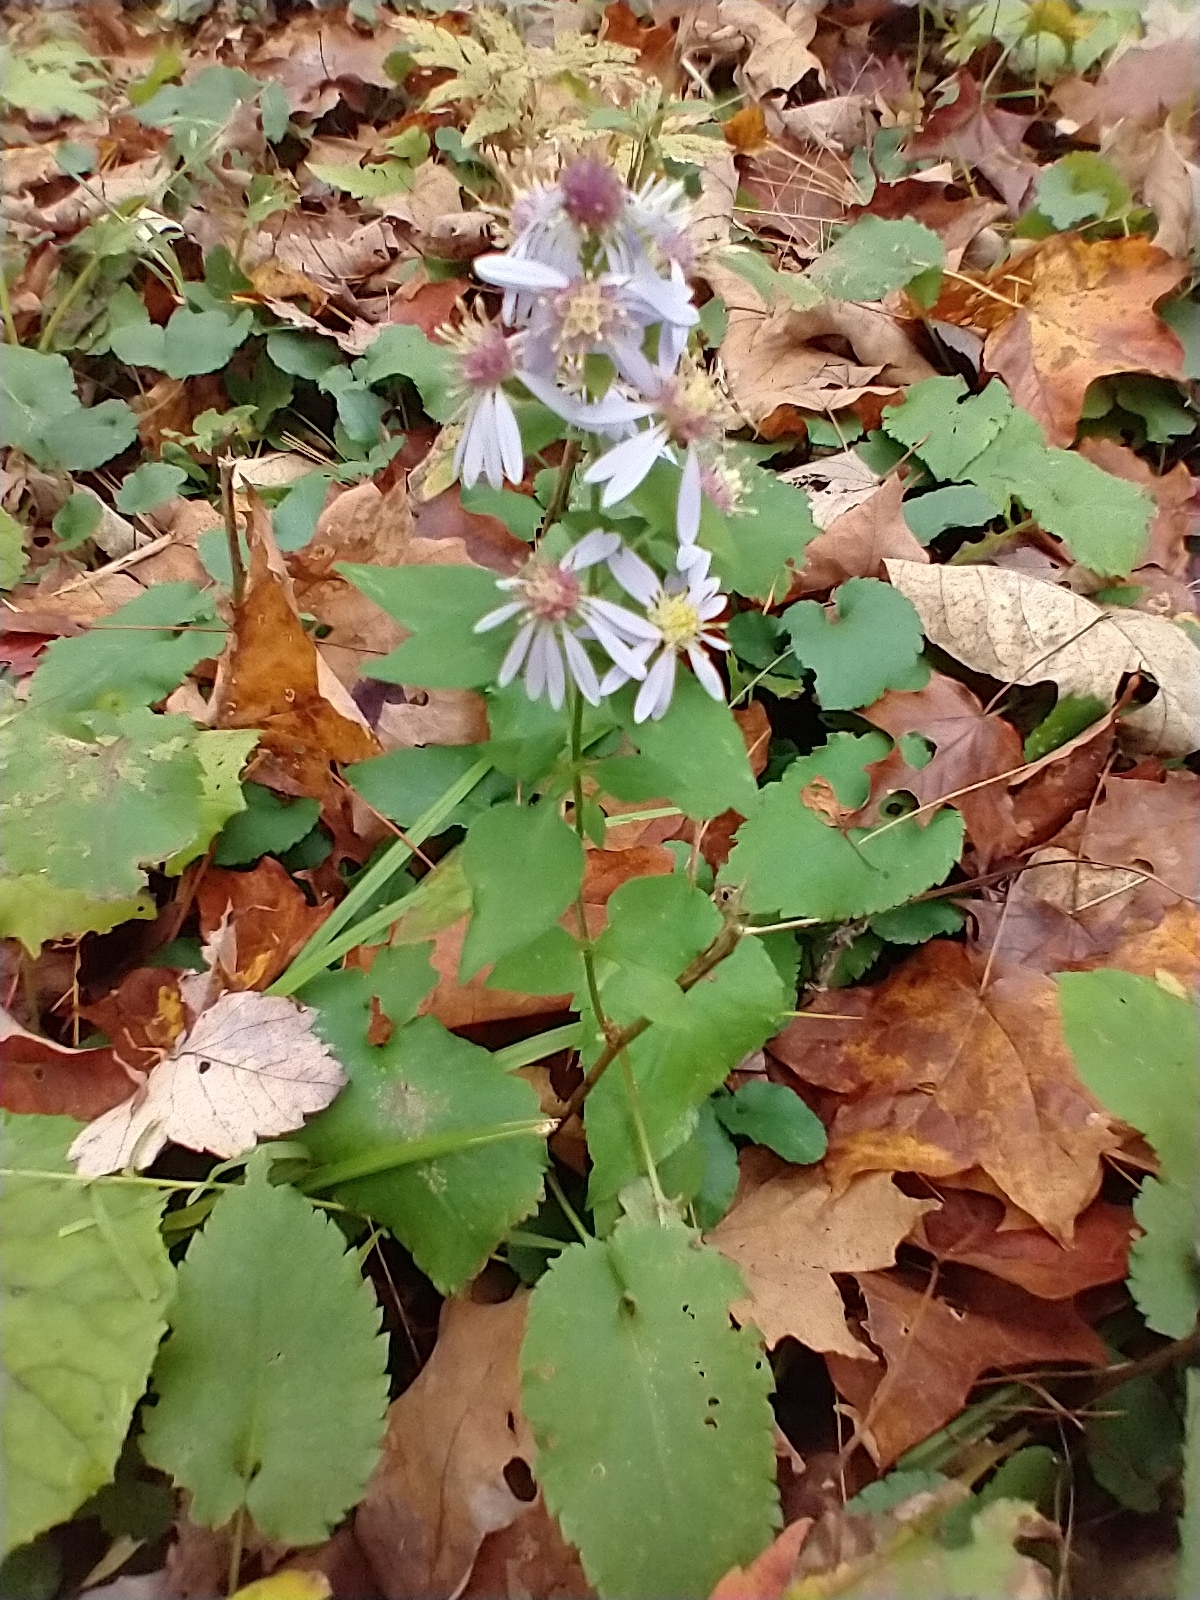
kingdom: Plantae
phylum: Tracheophyta
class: Magnoliopsida
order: Asterales
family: Asteraceae
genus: Symphyotrichum
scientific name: Symphyotrichum cordifolium
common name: Beeweed
